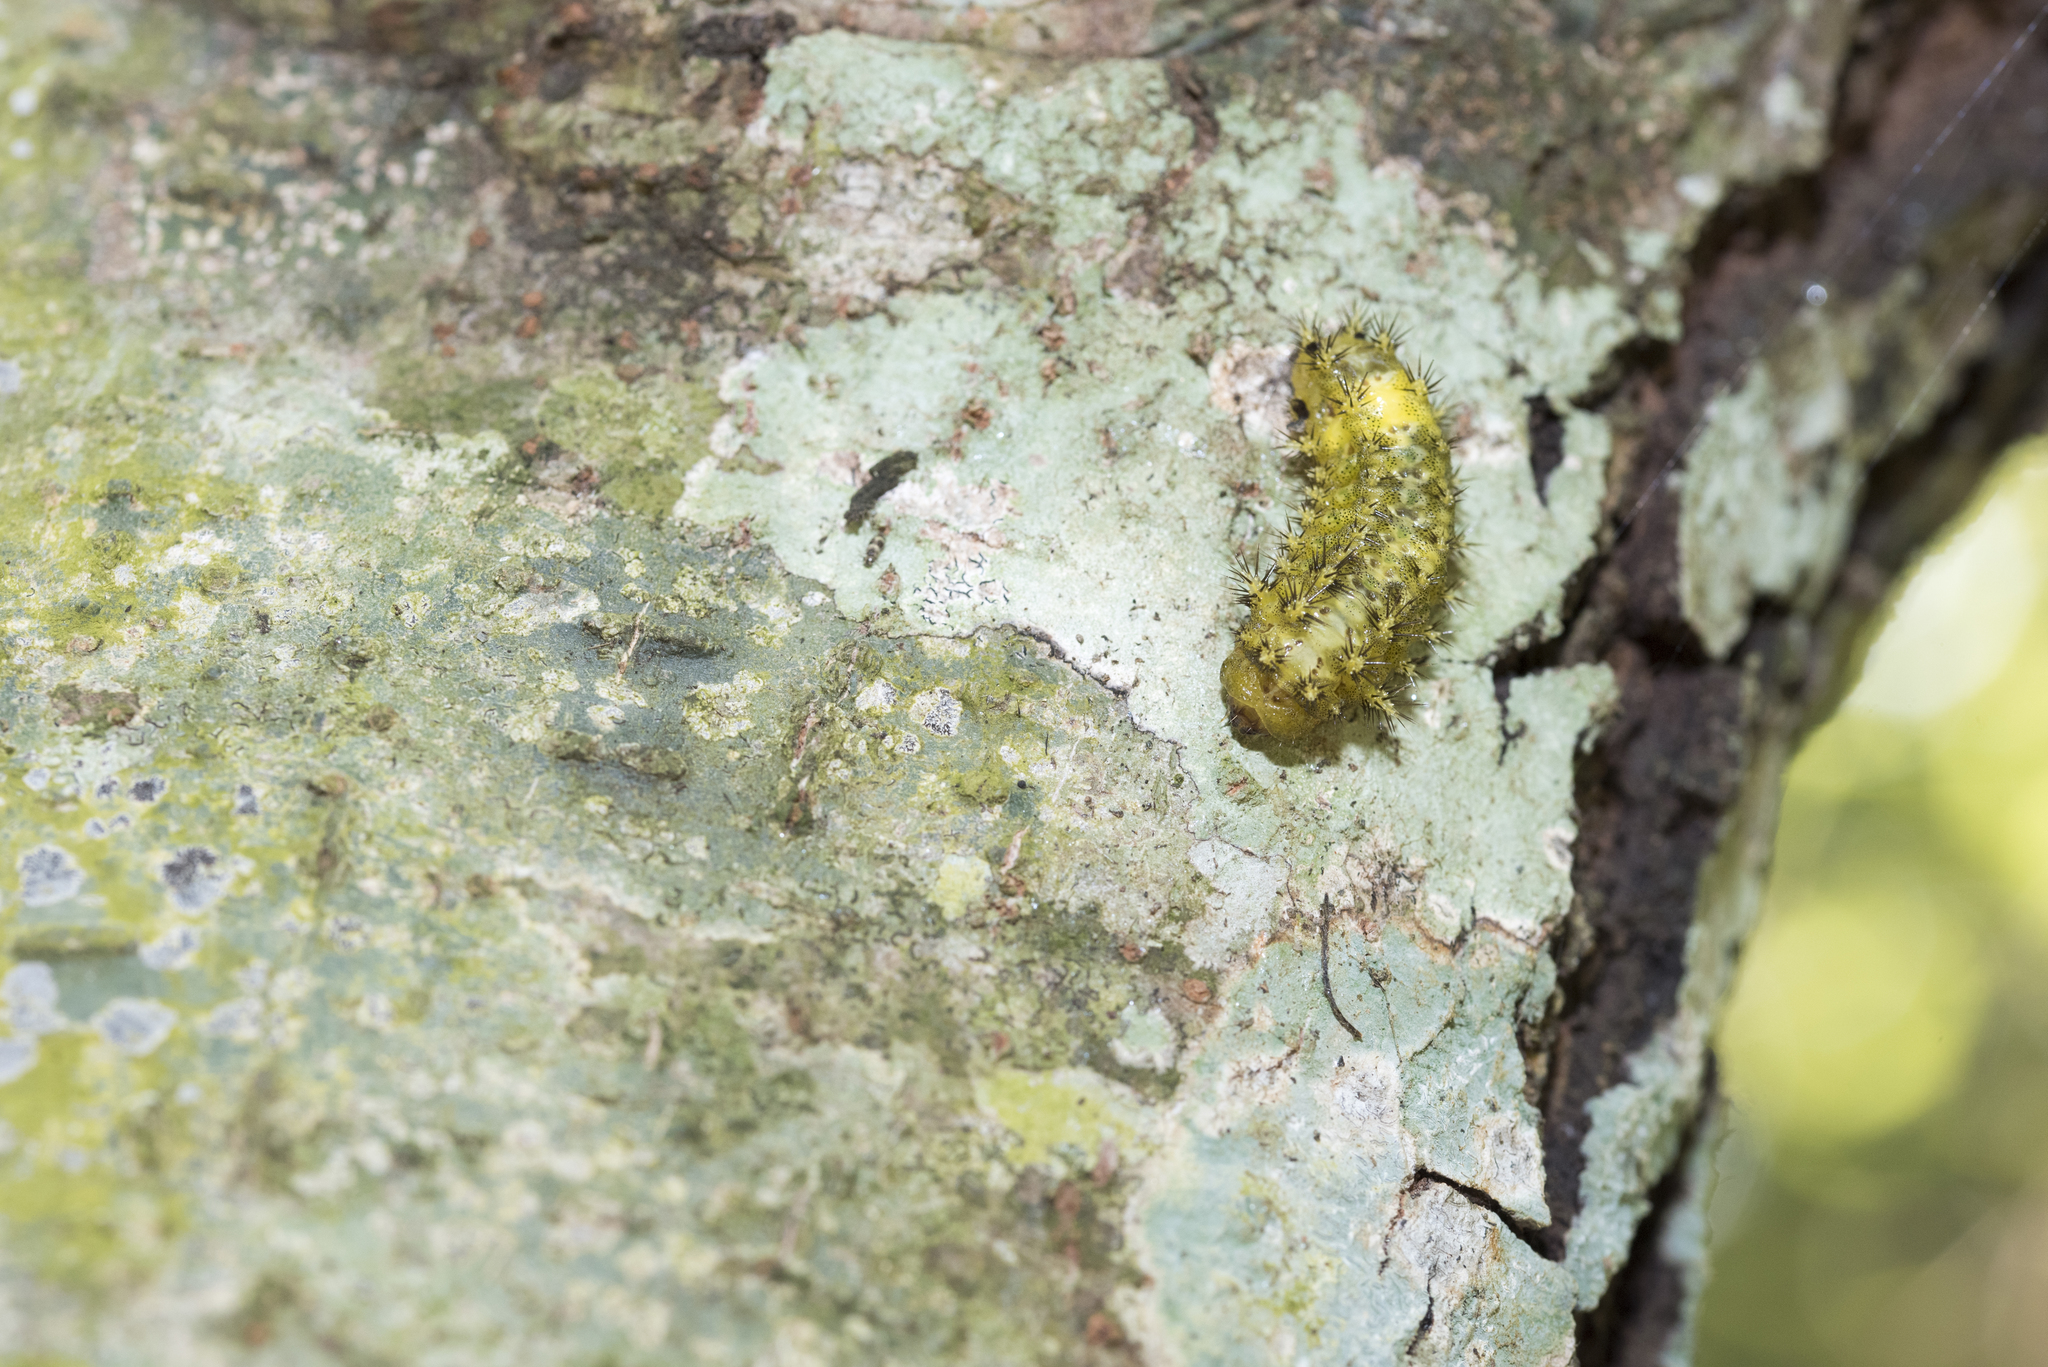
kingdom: Animalia
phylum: Arthropoda
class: Insecta
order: Lepidoptera
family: Limacodidae
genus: Scopelodes
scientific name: Scopelodes contracta
